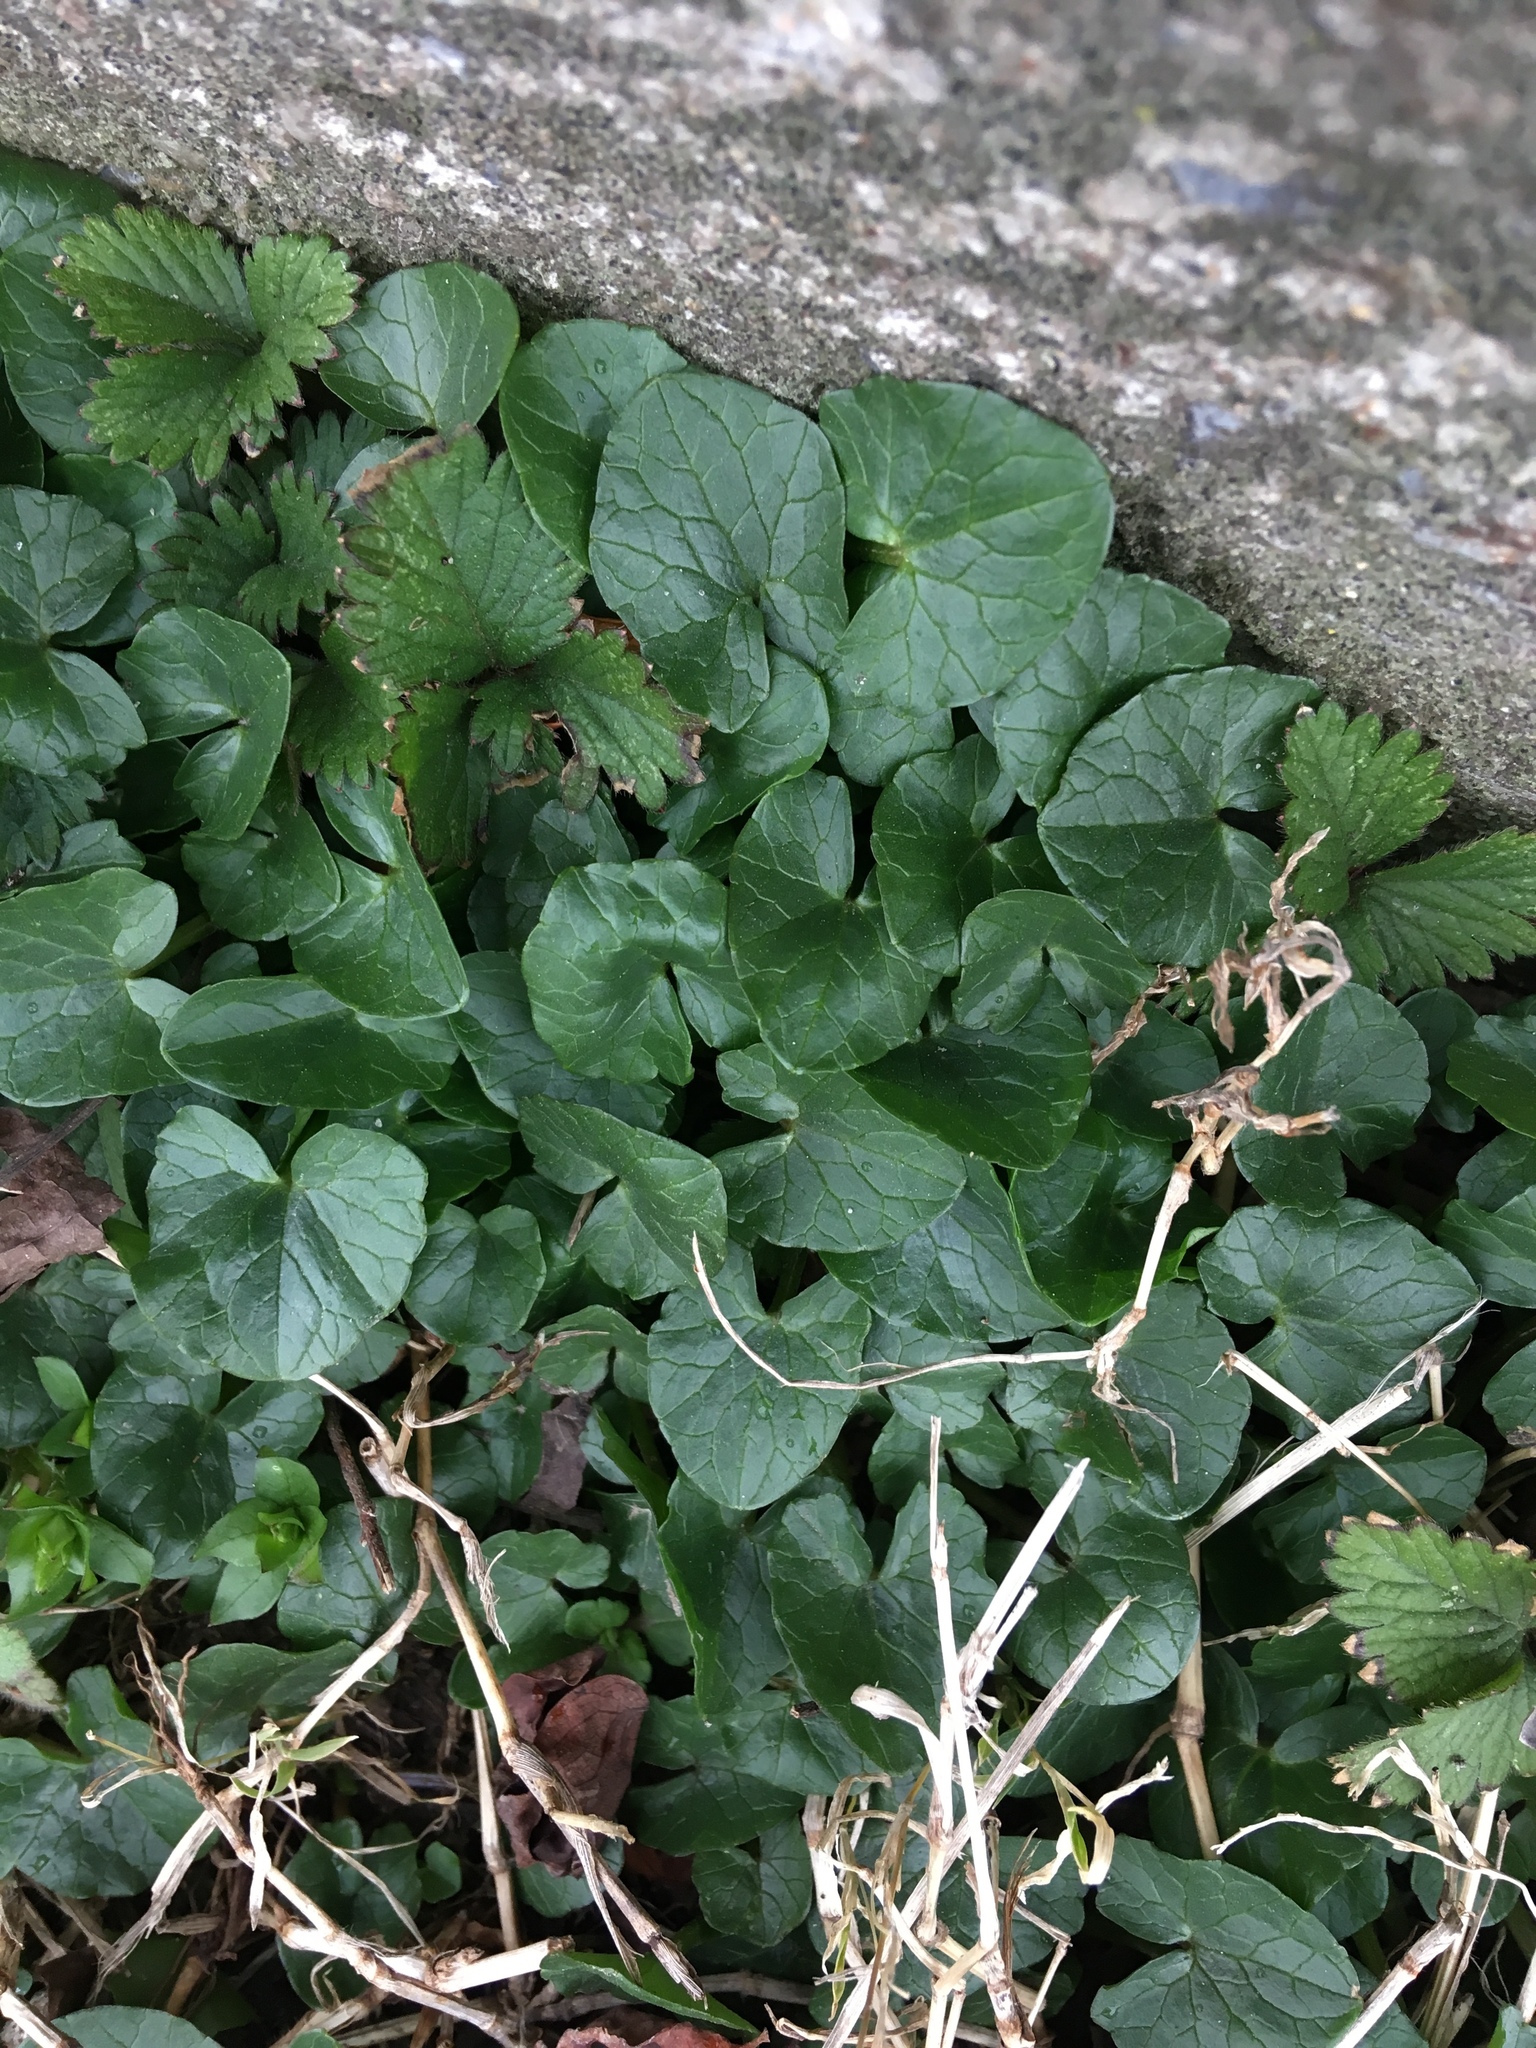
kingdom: Plantae
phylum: Tracheophyta
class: Magnoliopsida
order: Ranunculales
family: Ranunculaceae
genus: Ficaria
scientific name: Ficaria verna
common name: Lesser celandine
